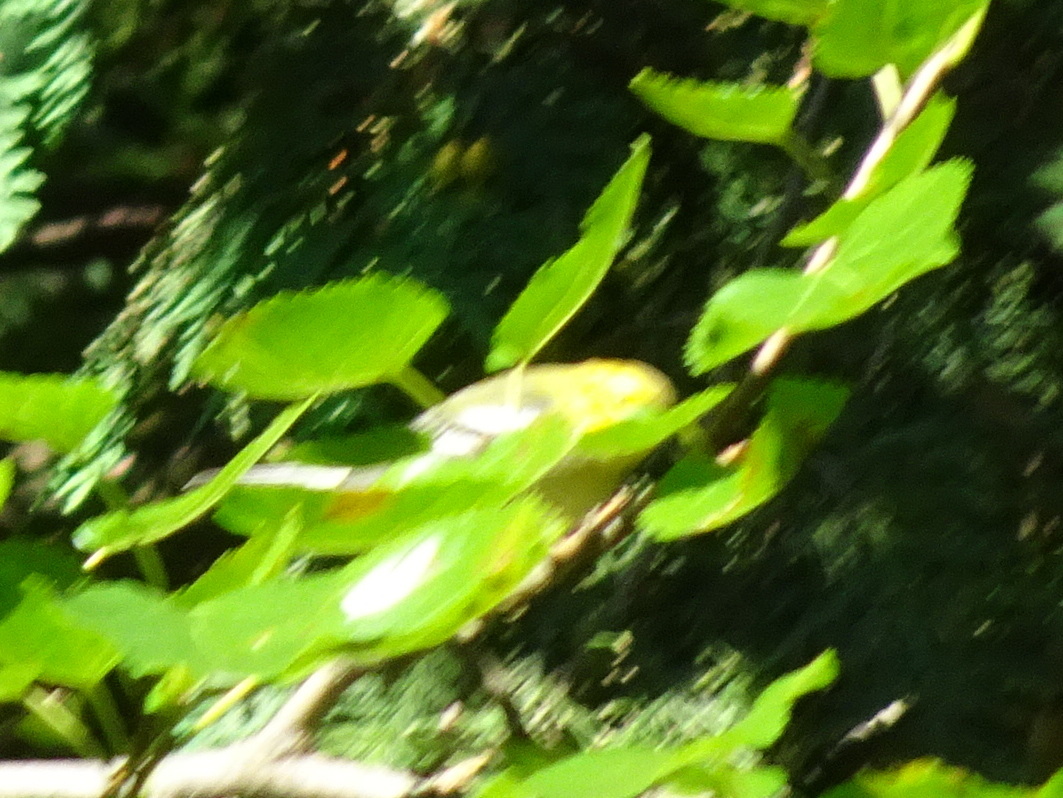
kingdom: Animalia
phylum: Chordata
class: Aves
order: Passeriformes
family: Parulidae
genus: Setophaga
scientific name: Setophaga virens
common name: Black-throated green warbler
